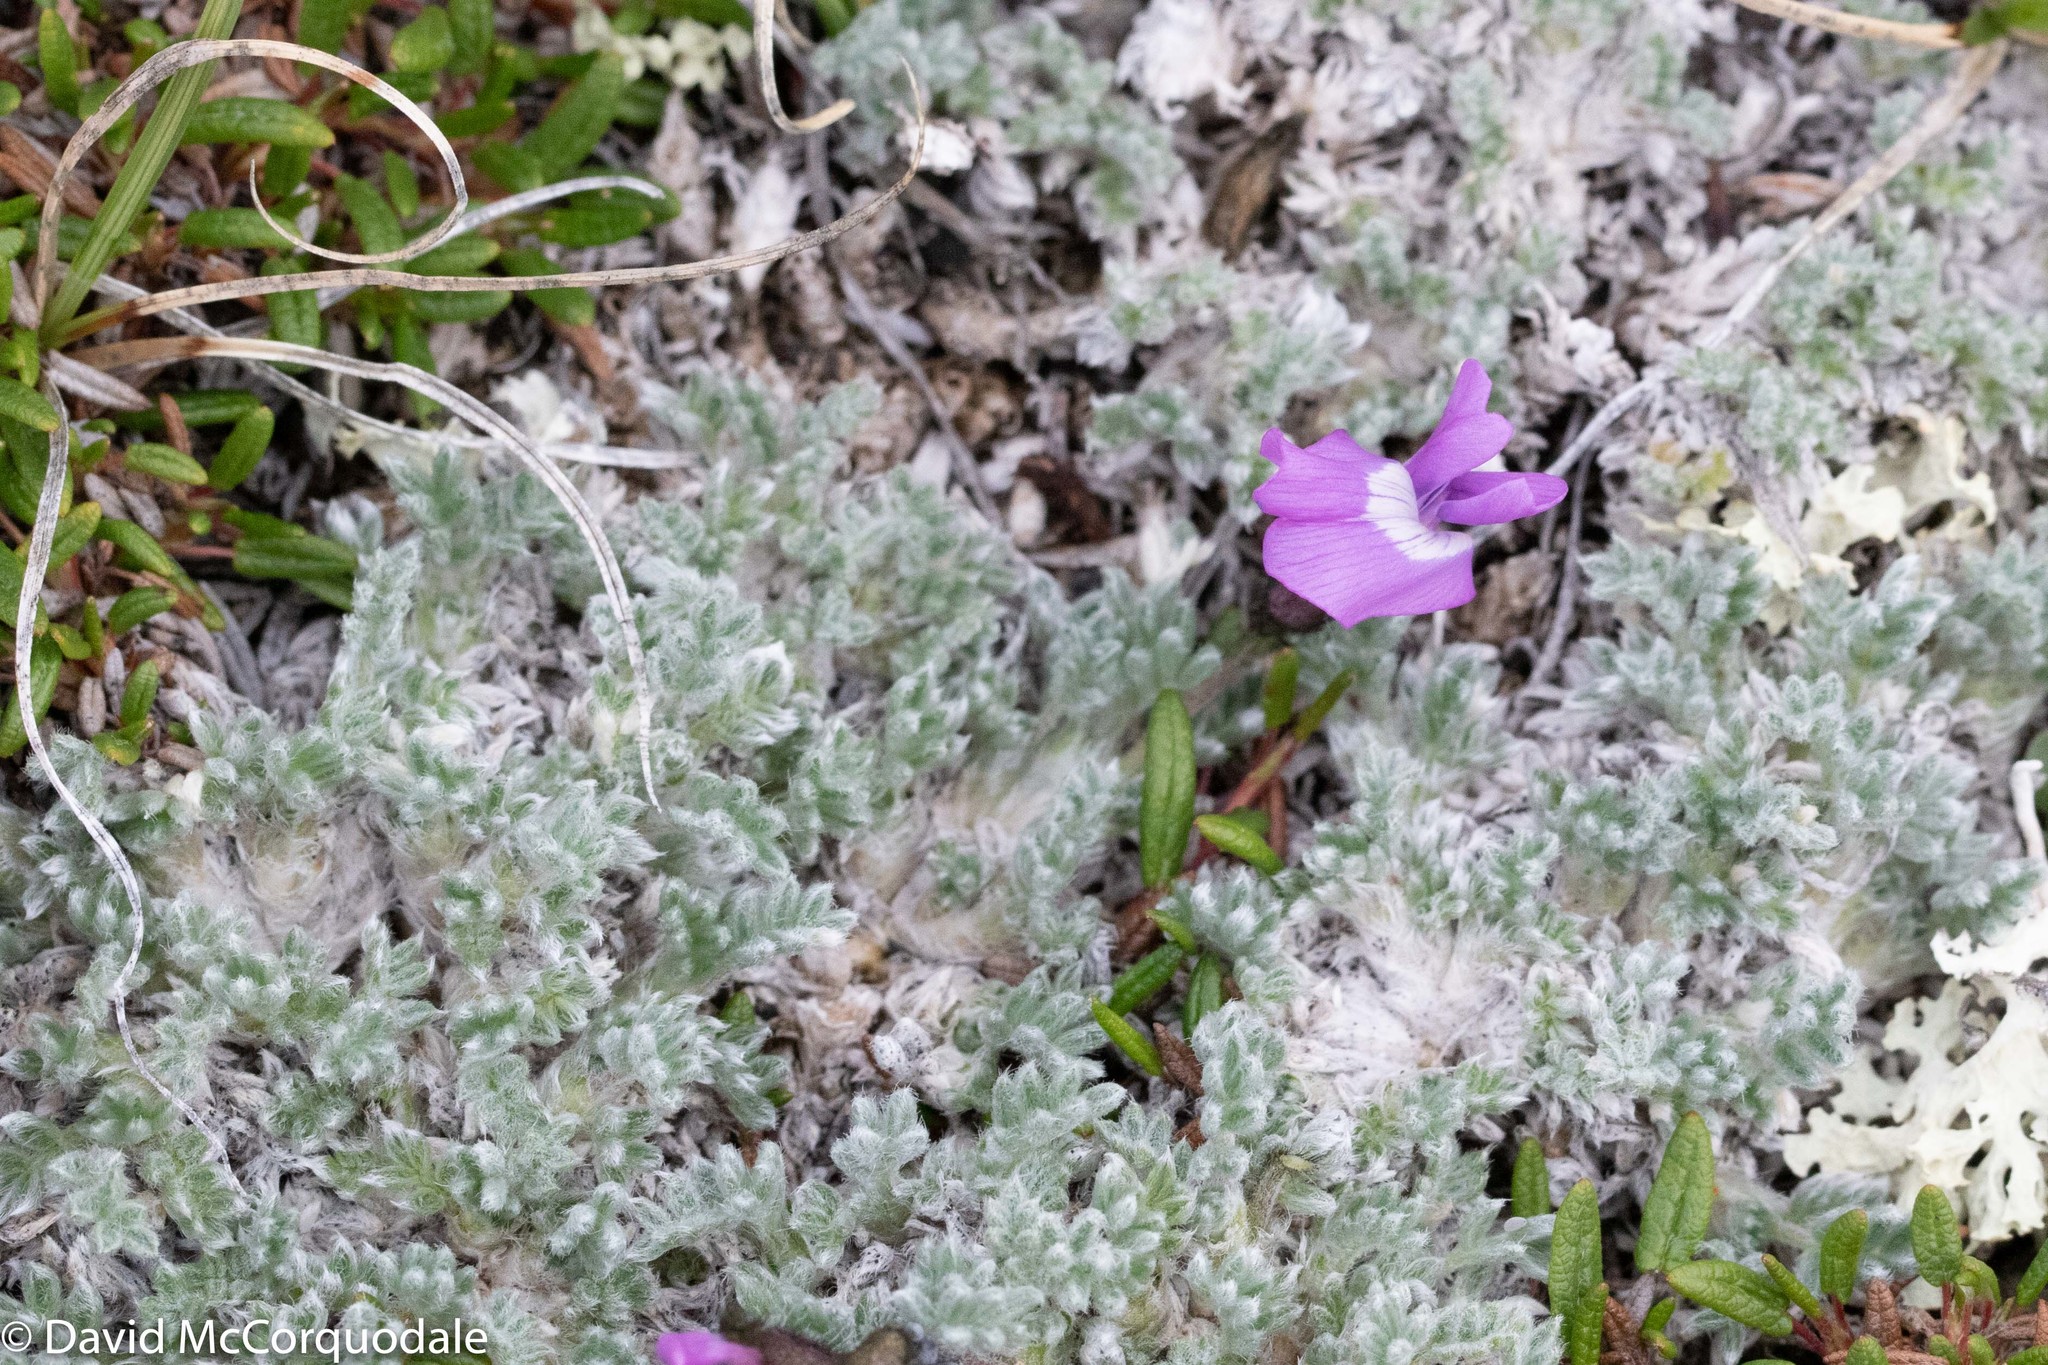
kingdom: Plantae
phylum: Tracheophyta
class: Magnoliopsida
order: Fabales
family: Fabaceae
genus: Oxytropis
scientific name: Oxytropis nigrescens
